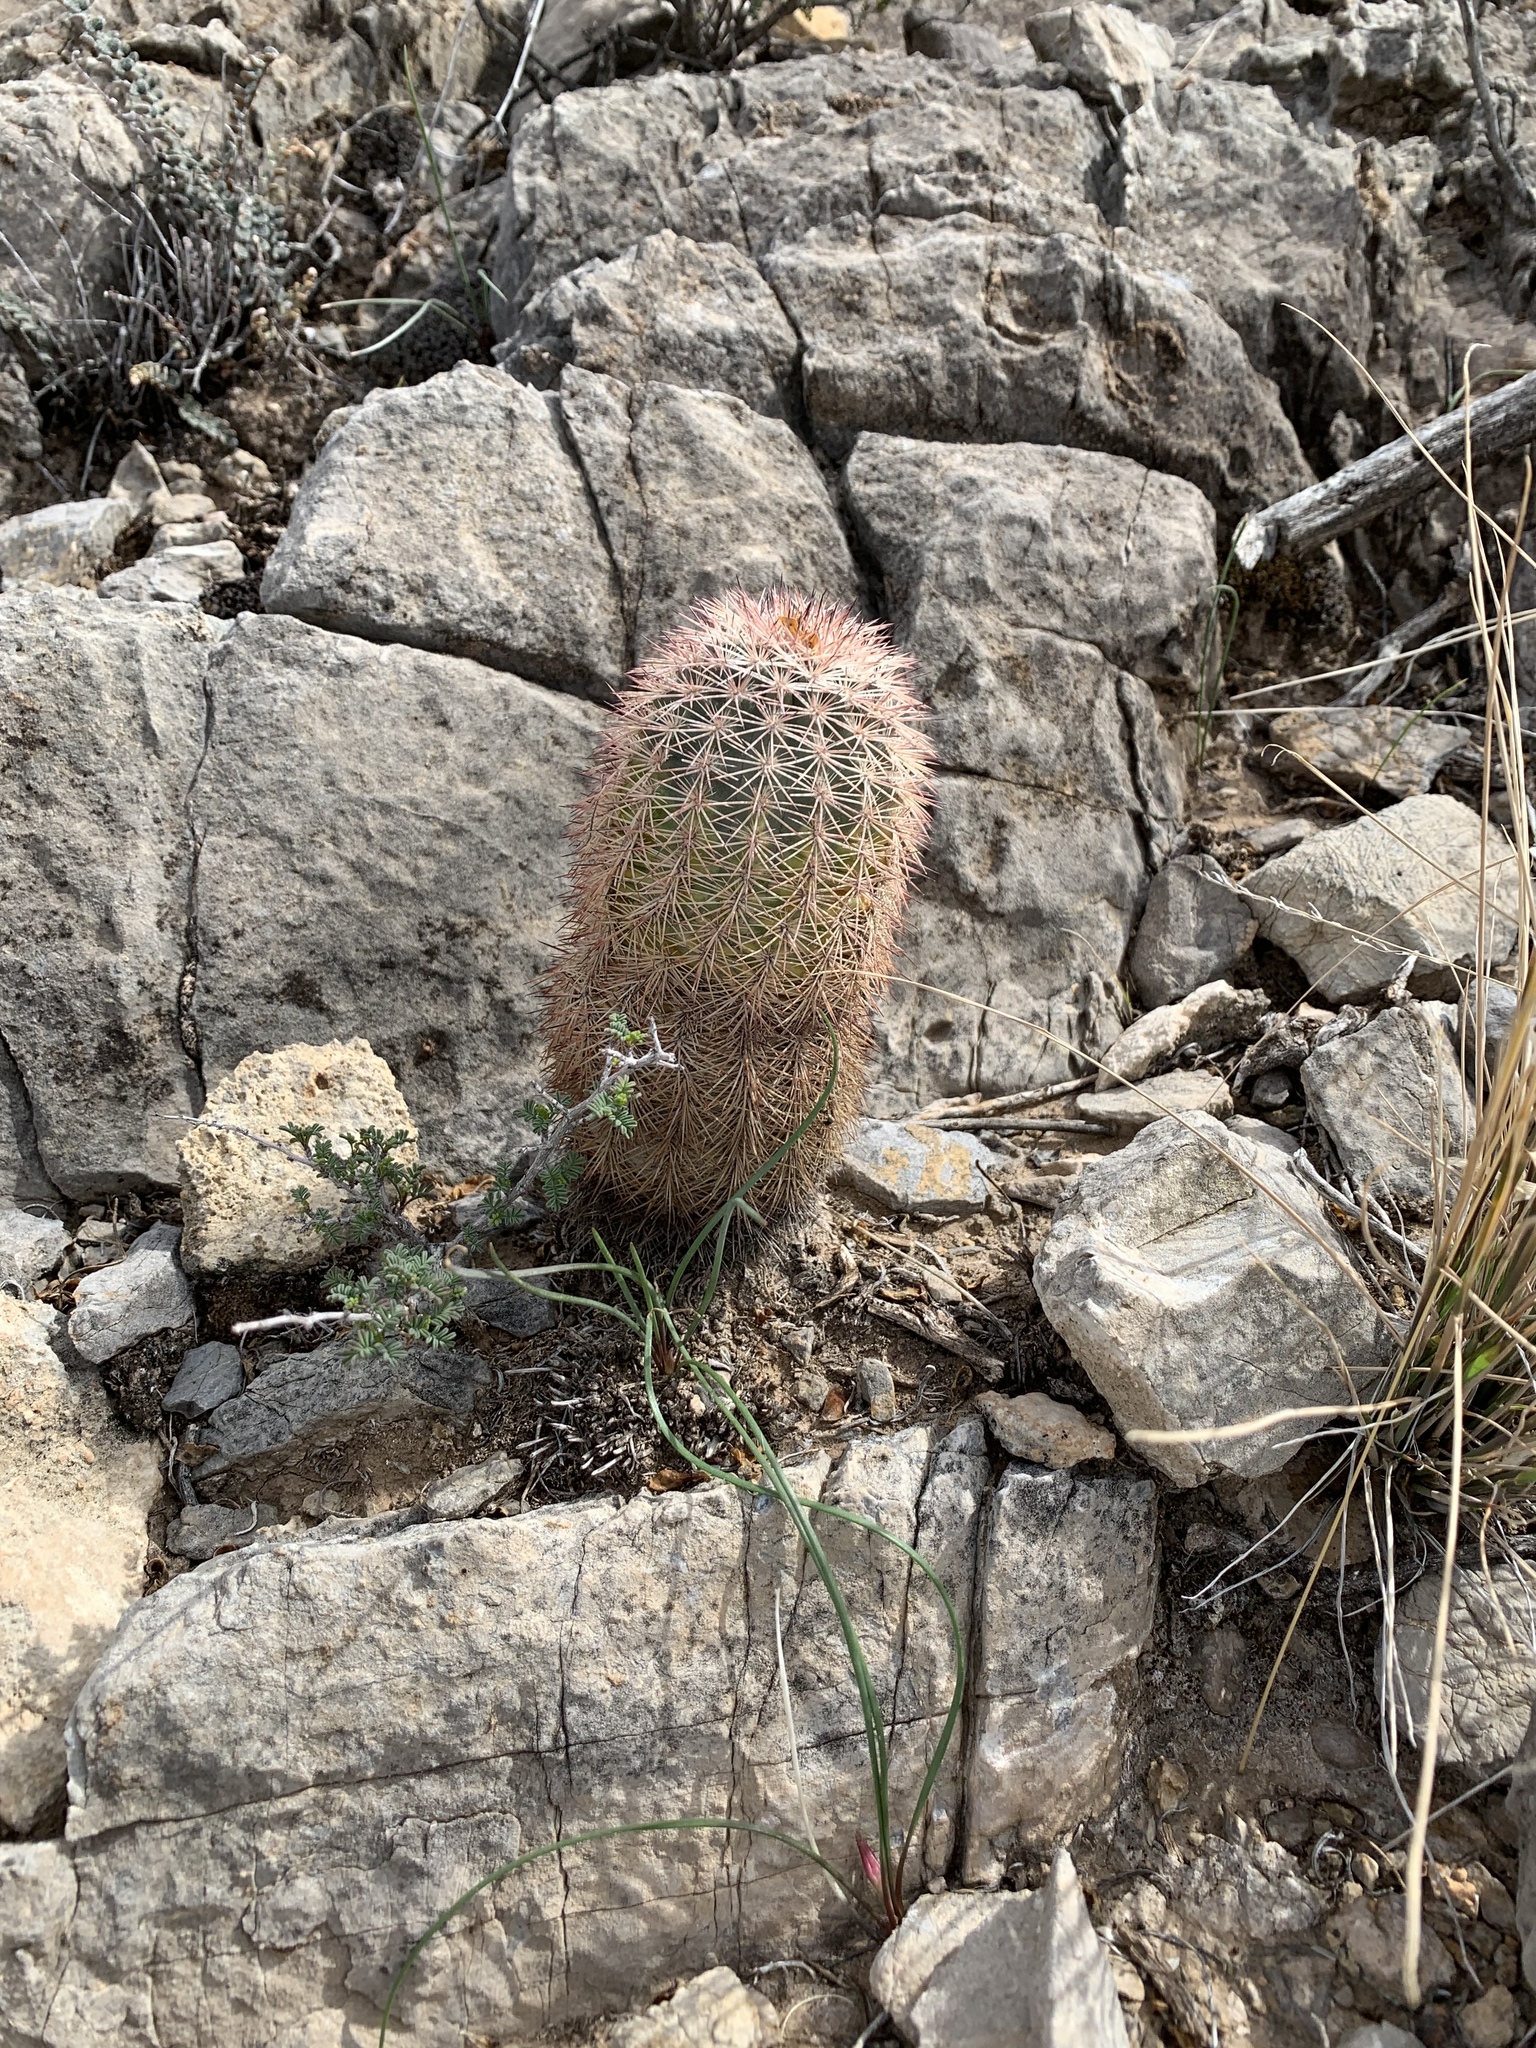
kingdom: Plantae
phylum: Tracheophyta
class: Magnoliopsida
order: Caryophyllales
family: Cactaceae
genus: Echinocereus
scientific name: Echinocereus dasyacanthus
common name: Spiny hedgehog cactus
